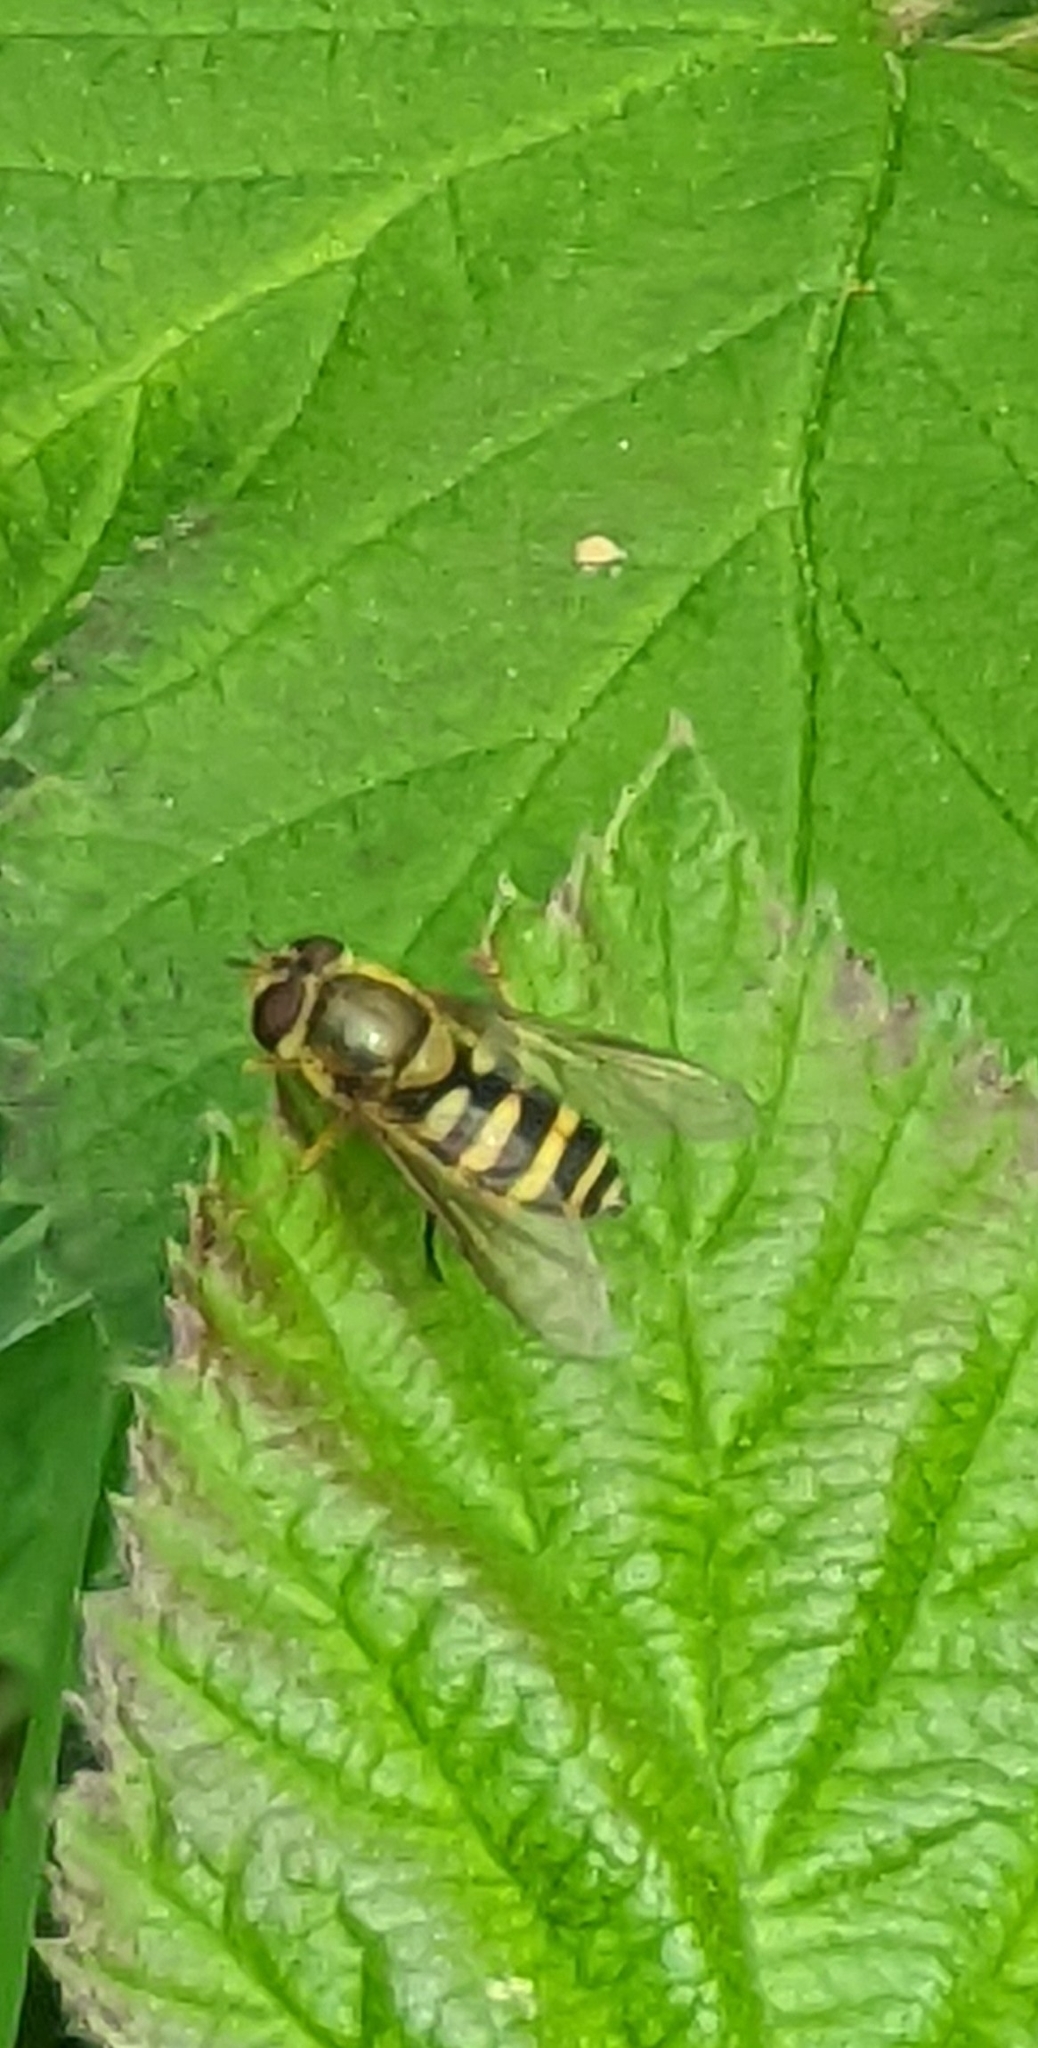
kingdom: Animalia
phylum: Arthropoda
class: Insecta
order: Diptera
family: Syrphidae
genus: Syrphus
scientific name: Syrphus ribesii
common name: Common flower fly
